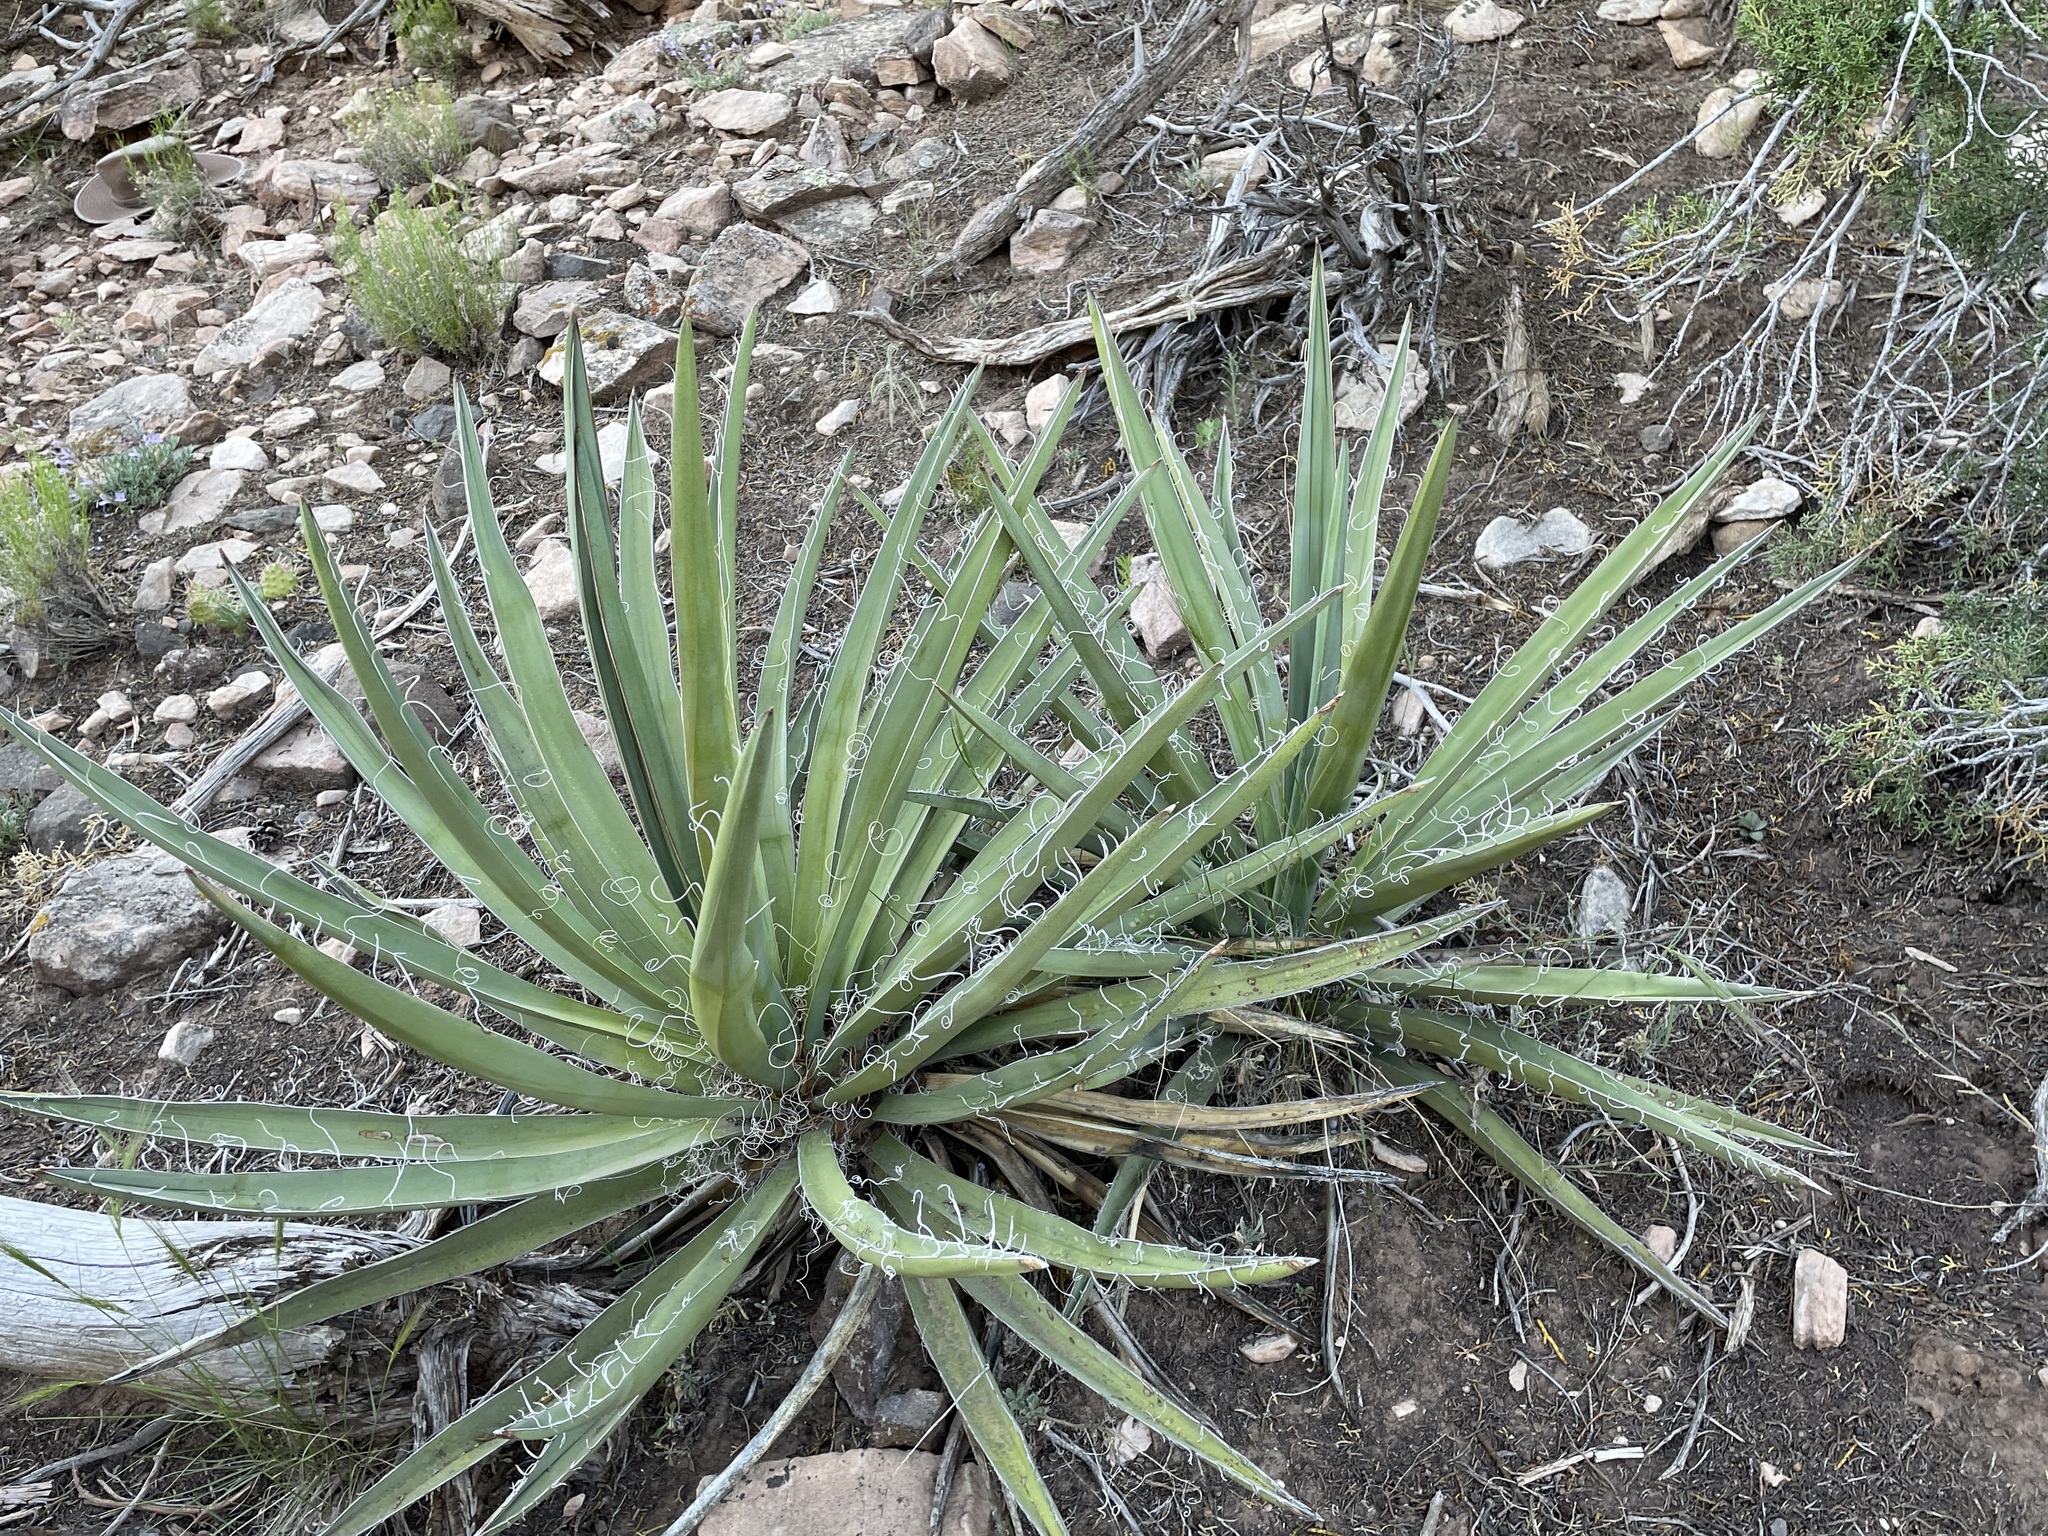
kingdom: Plantae
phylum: Tracheophyta
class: Liliopsida
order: Asparagales
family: Asparagaceae
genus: Yucca
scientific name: Yucca baccata
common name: Banana yucca
